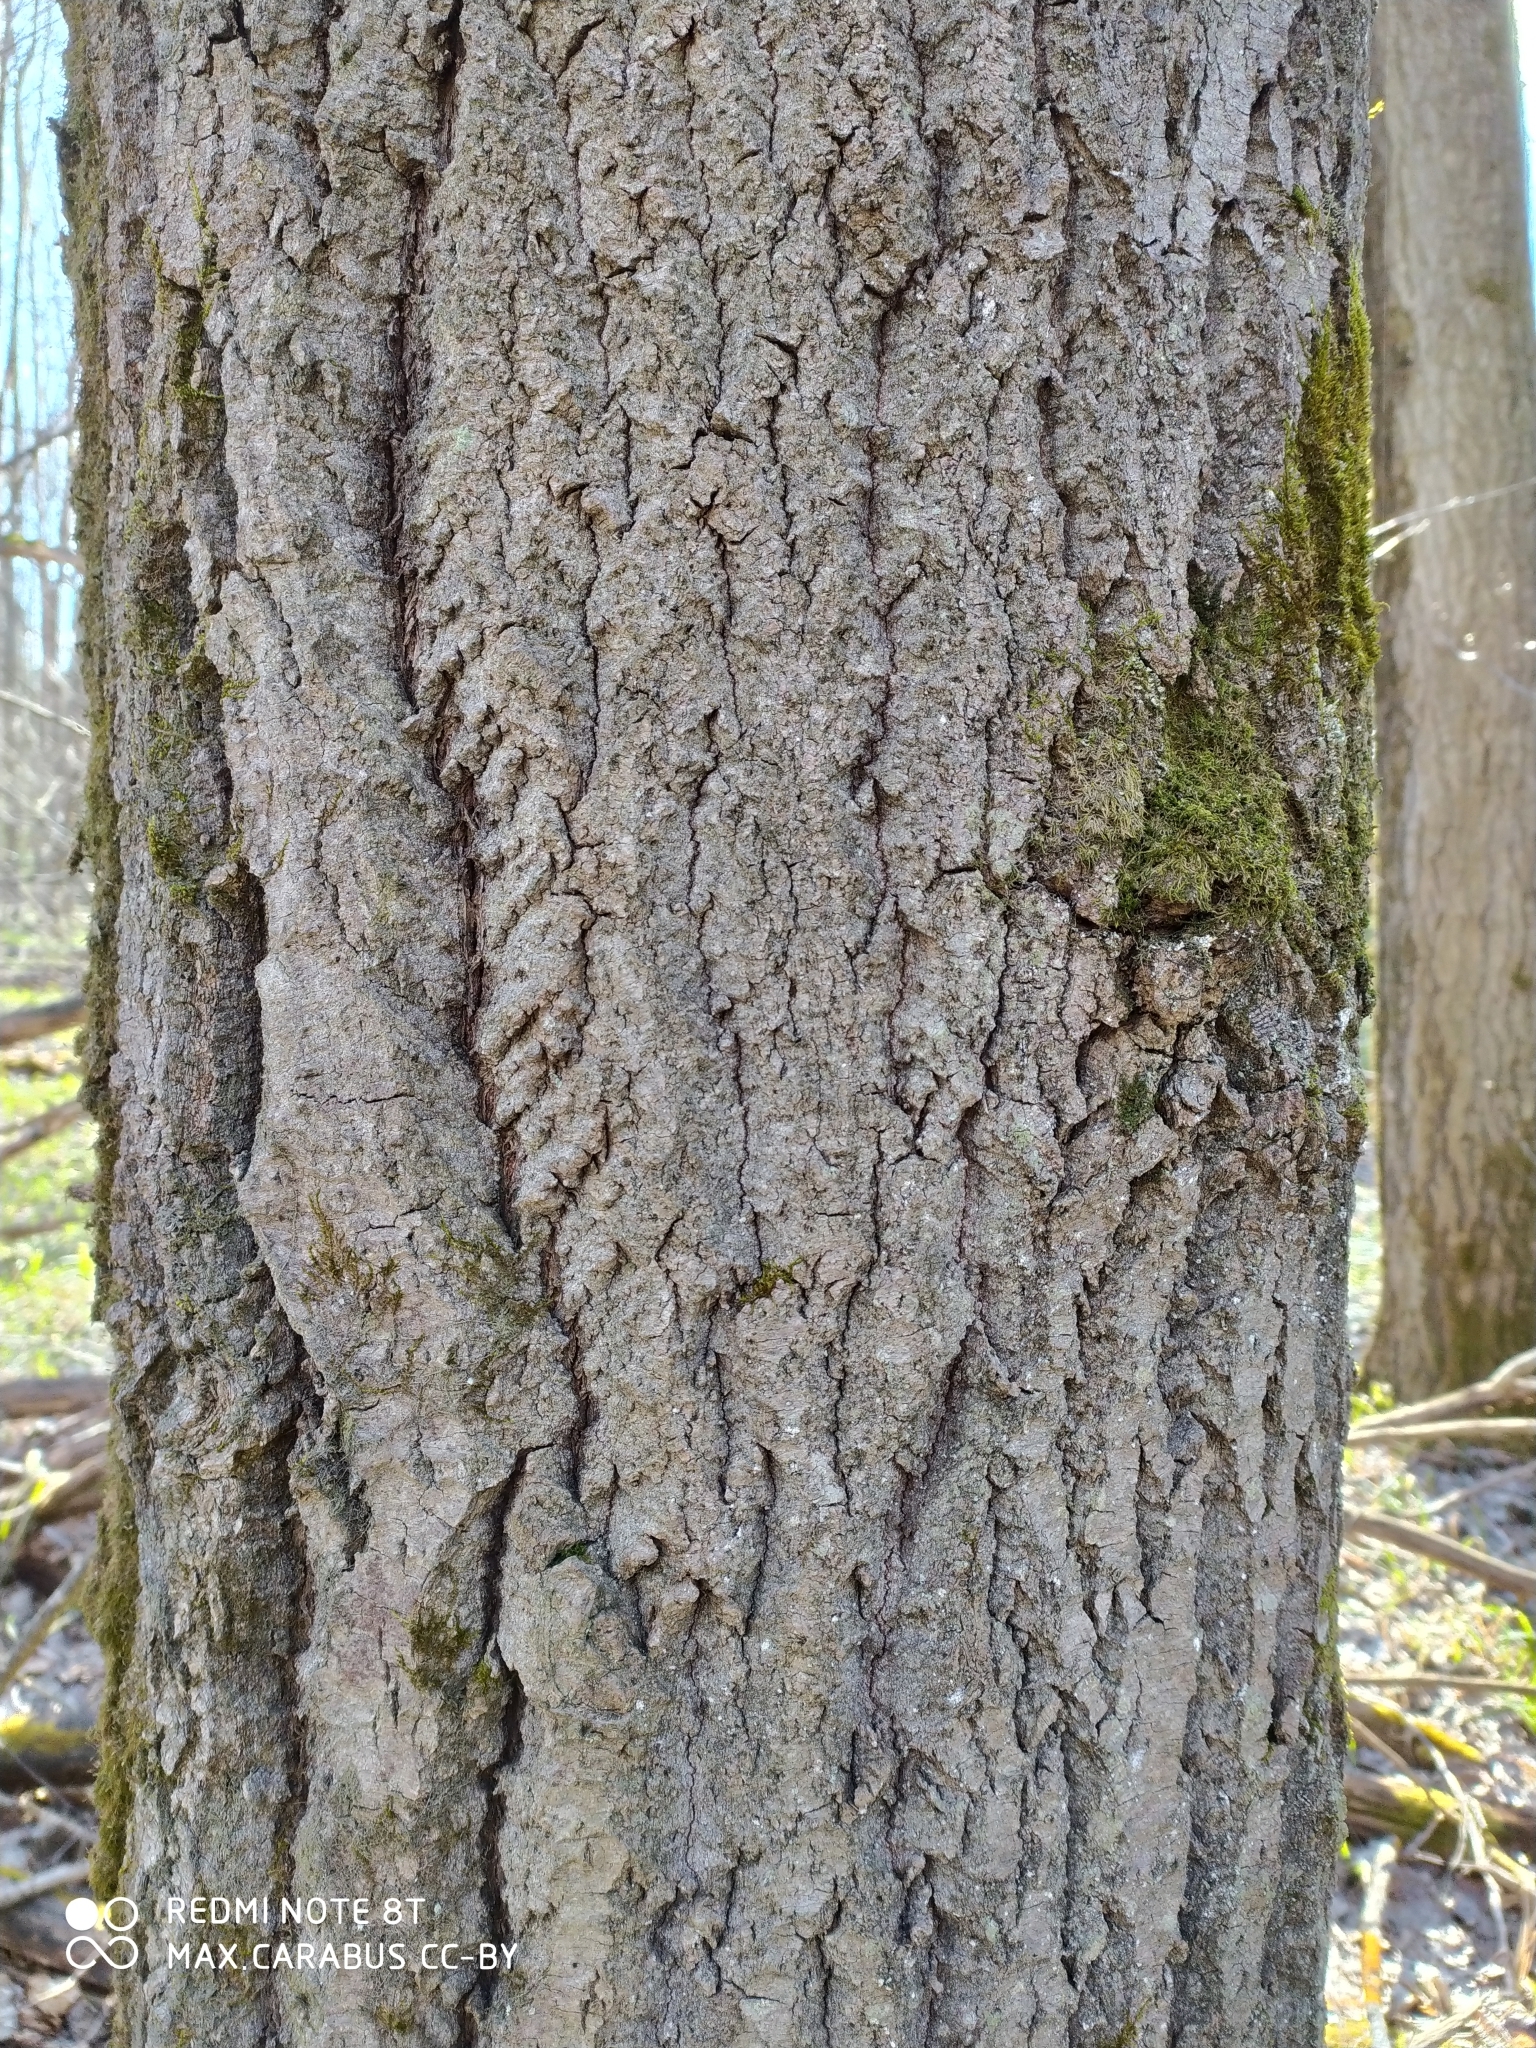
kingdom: Plantae
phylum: Tracheophyta
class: Magnoliopsida
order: Malpighiales
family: Salicaceae
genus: Populus
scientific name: Populus tremula
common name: European aspen
